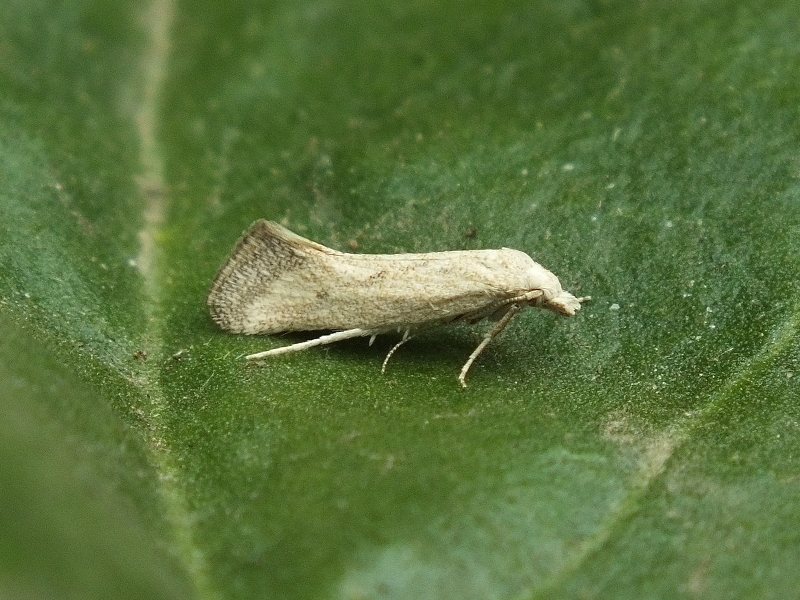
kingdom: Animalia
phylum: Arthropoda
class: Insecta
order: Lepidoptera
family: Gelechiidae
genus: Metanarsia
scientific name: Metanarsia modesta
